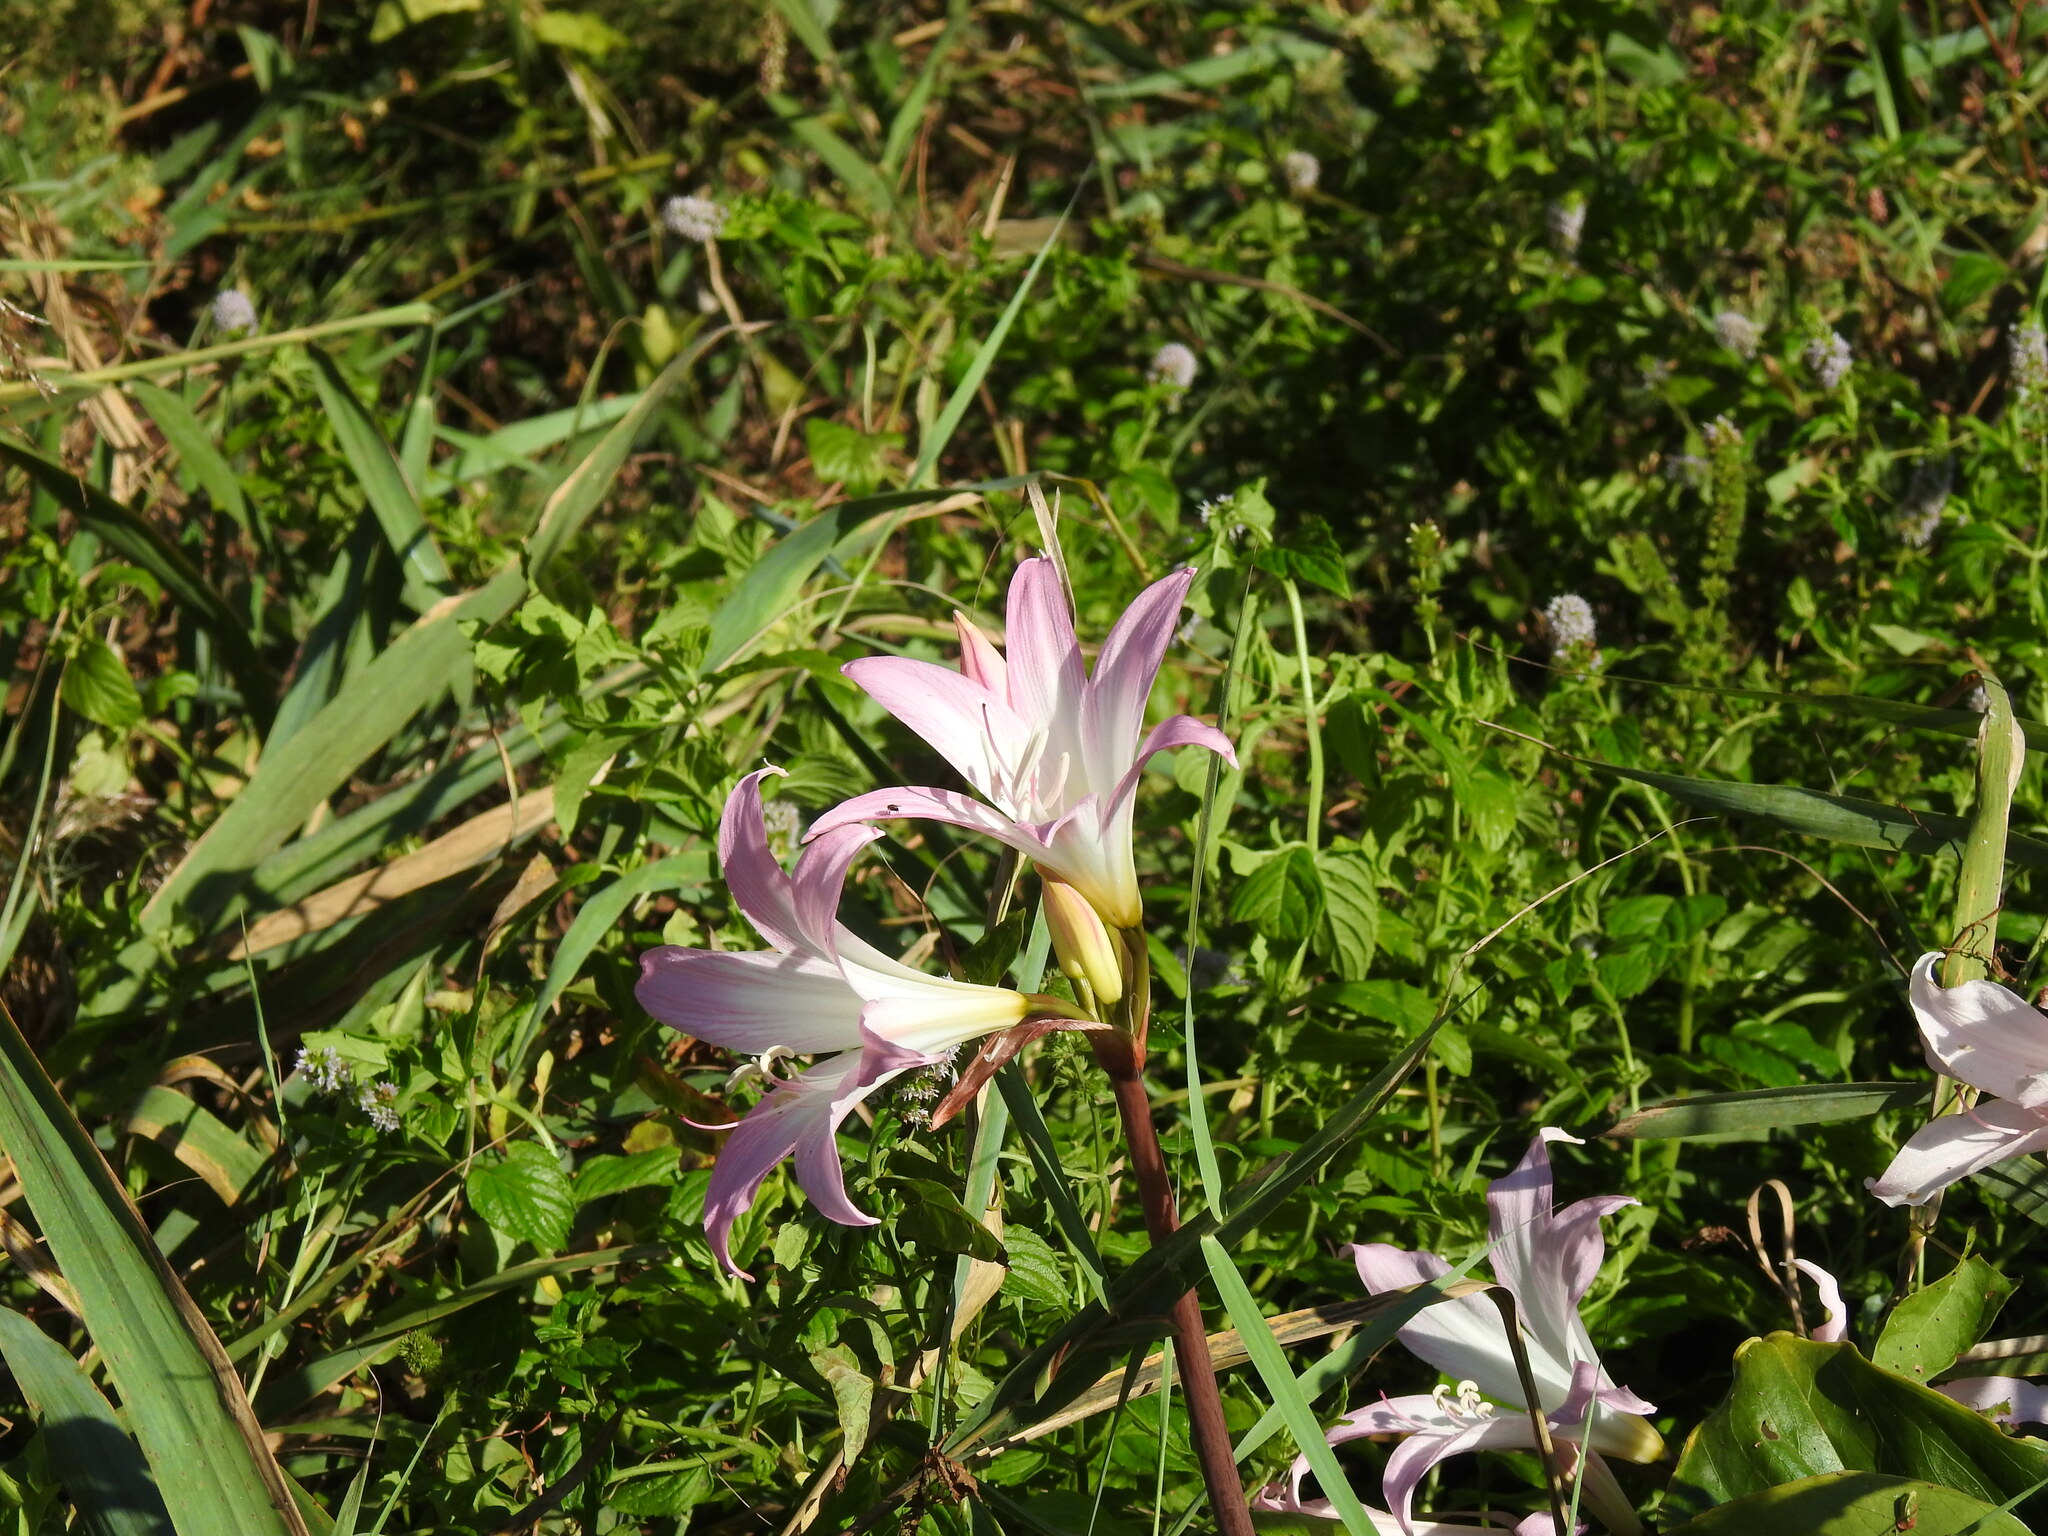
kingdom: Plantae
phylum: Tracheophyta
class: Liliopsida
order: Asparagales
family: Amaryllidaceae
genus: Amaryllis
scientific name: Amaryllis belladonna
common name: Jersey lily
